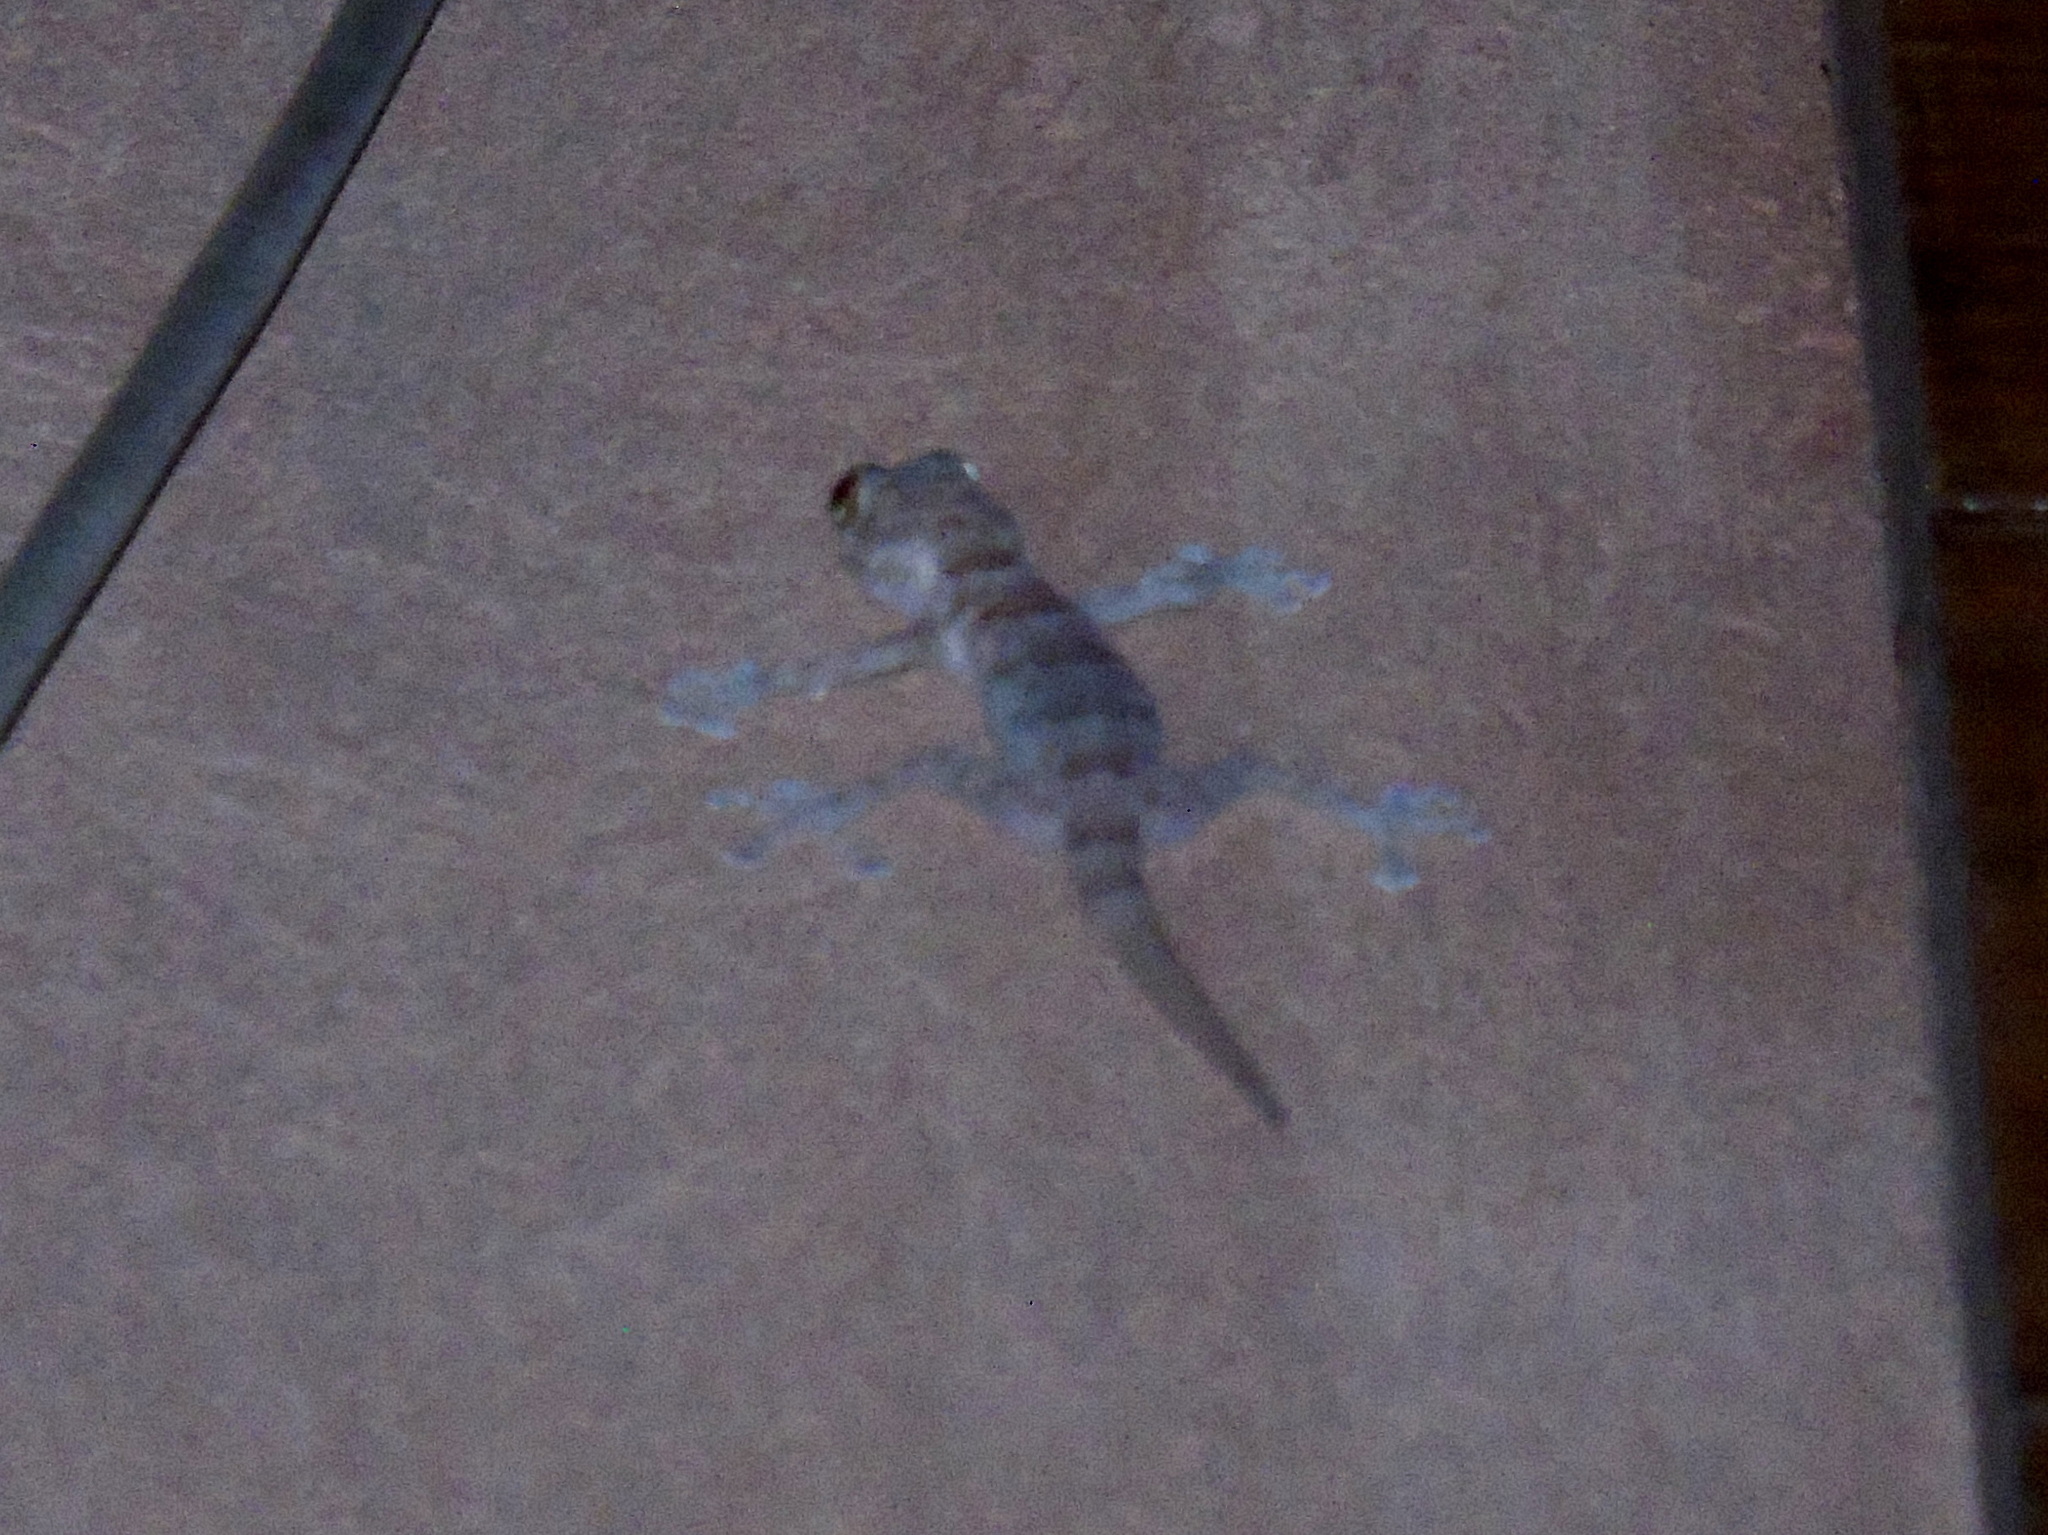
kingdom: Animalia
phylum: Chordata
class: Squamata
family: Phyllodactylidae
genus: Ptyodactylus
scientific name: Ptyodactylus hasselquistii
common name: Hasselquist’s fan-footed gecko
